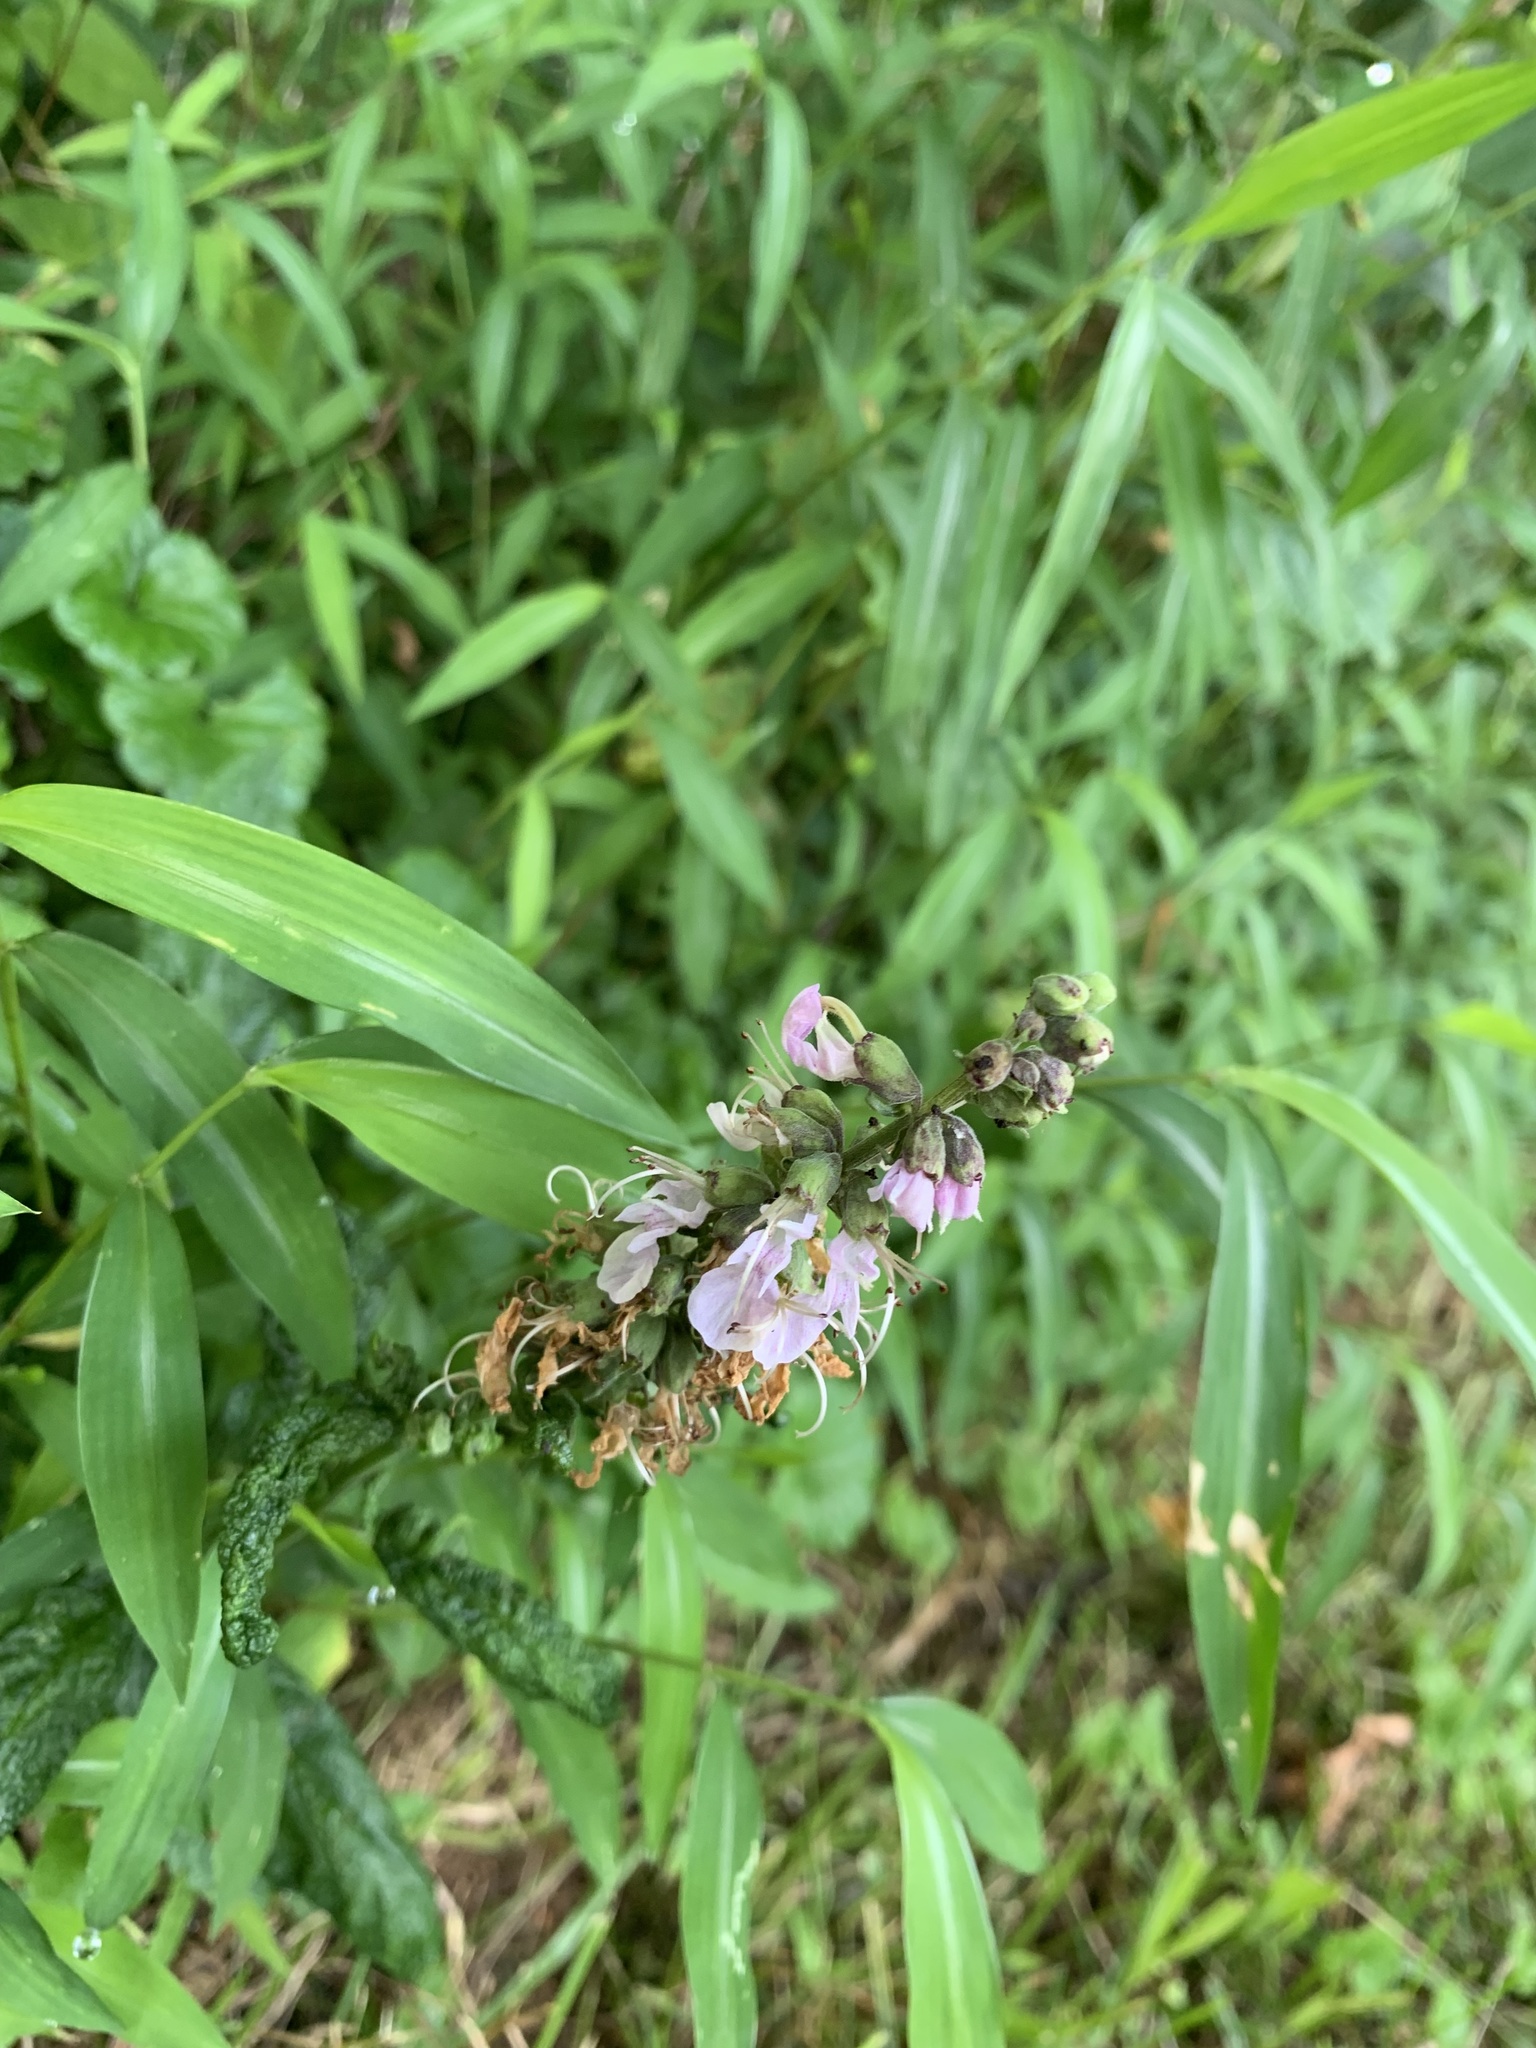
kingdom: Plantae
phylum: Tracheophyta
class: Magnoliopsida
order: Lamiales
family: Lamiaceae
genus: Teucrium
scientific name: Teucrium canadense
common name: American germander
